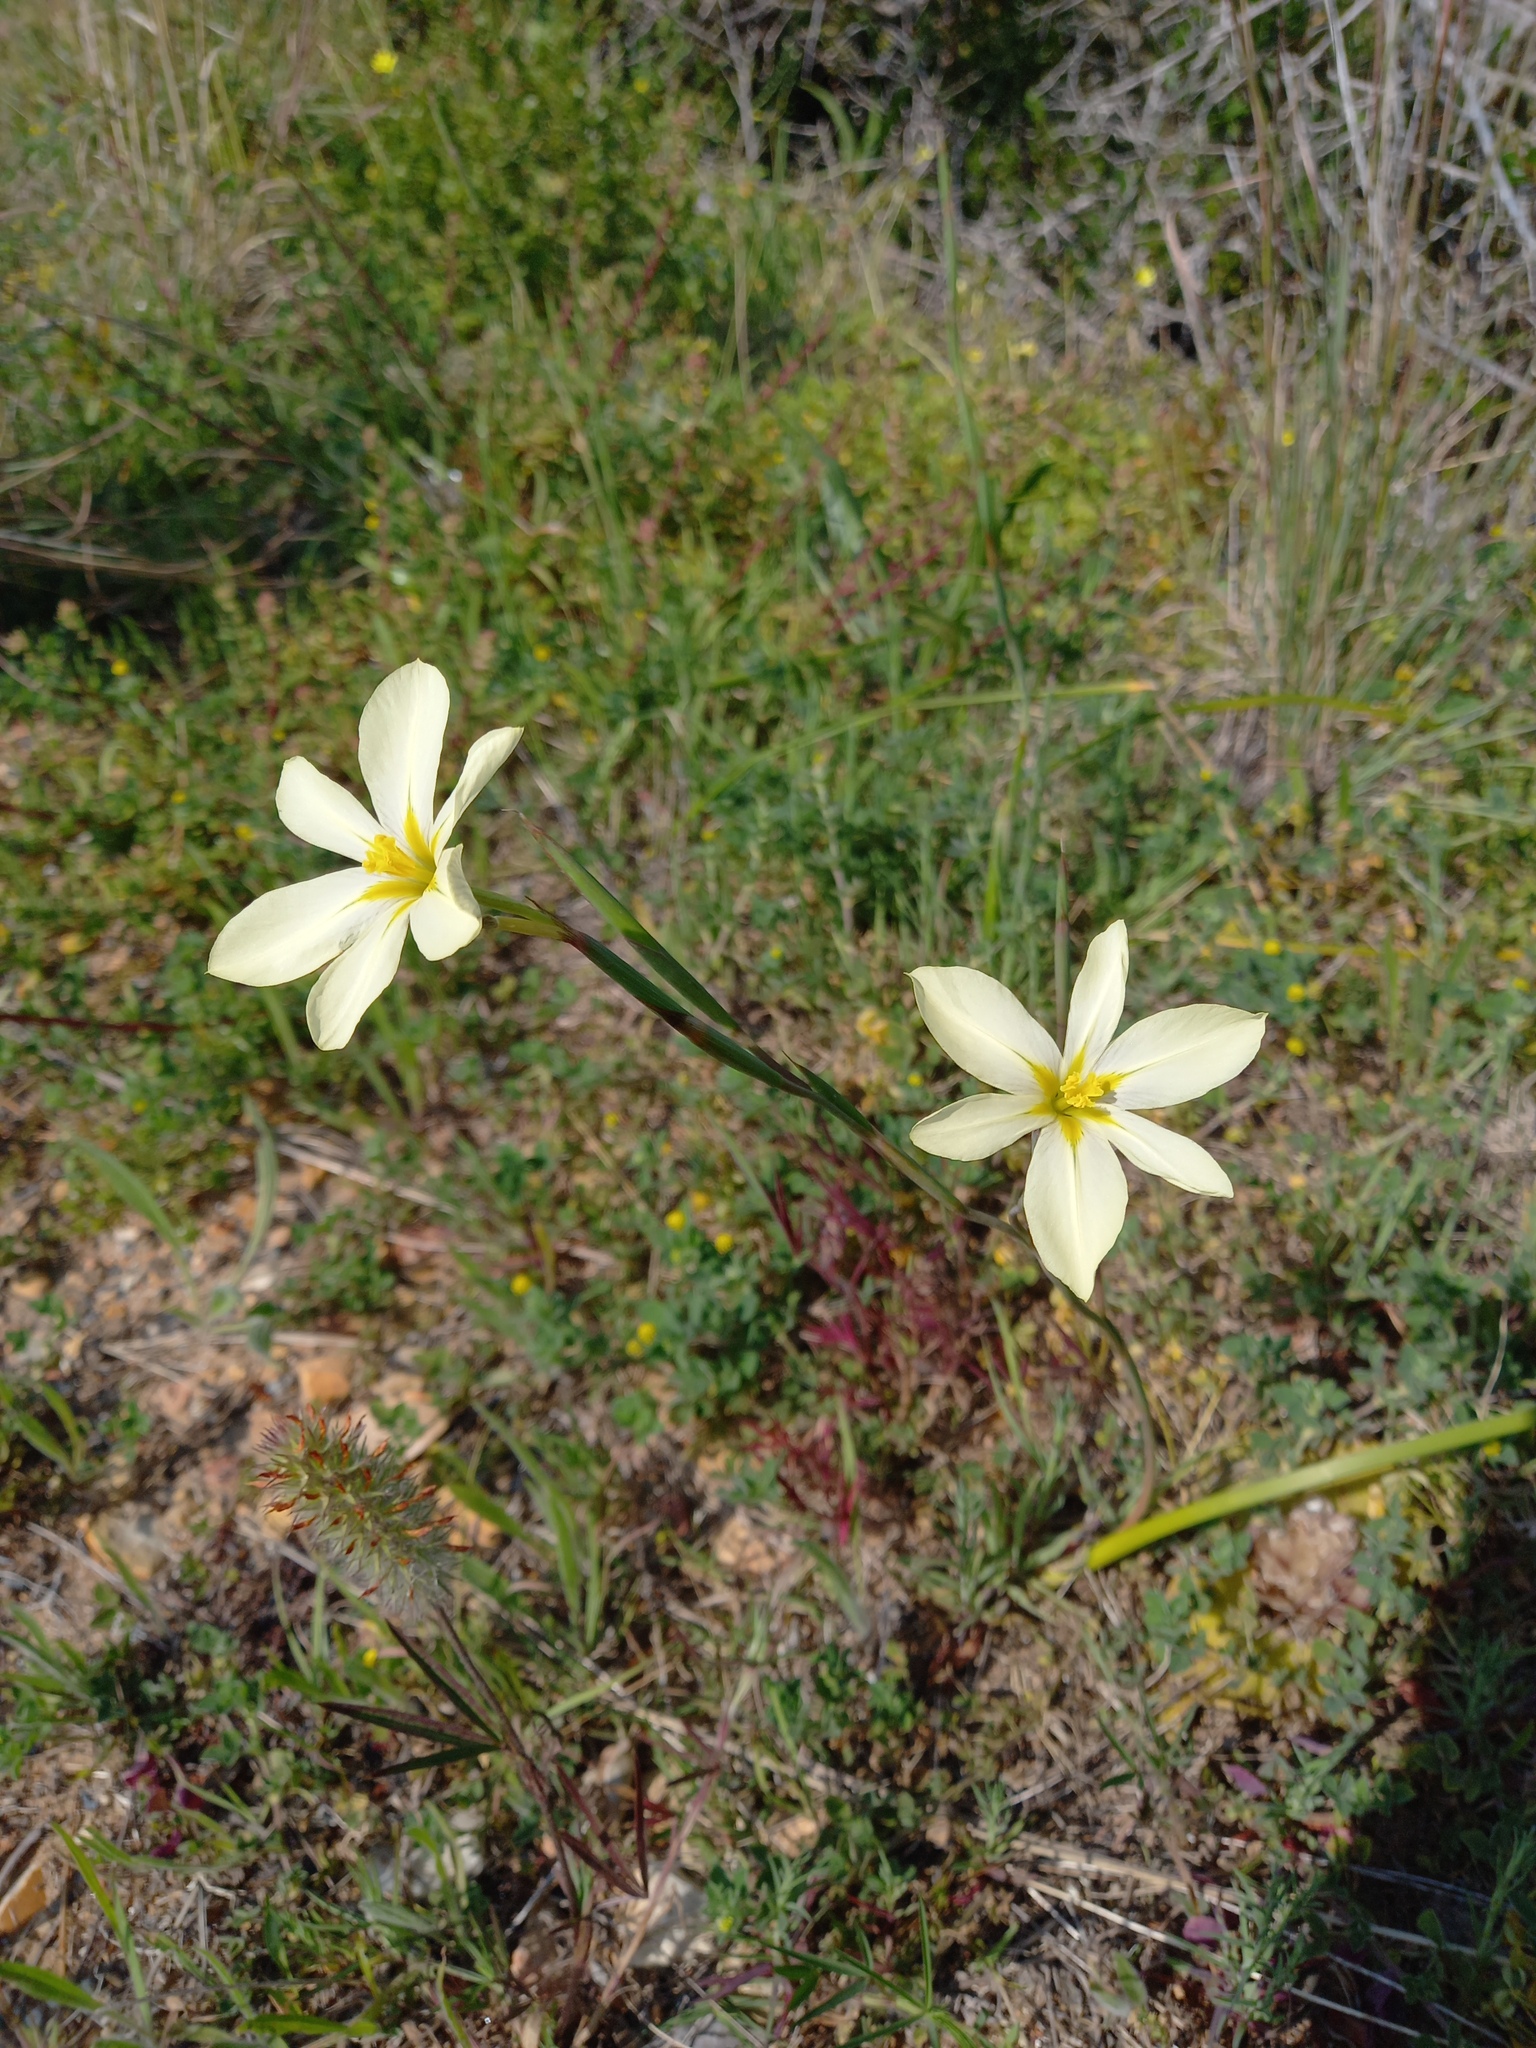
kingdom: Plantae
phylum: Tracheophyta
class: Liliopsida
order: Asparagales
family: Iridaceae
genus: Moraea
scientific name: Moraea bulbillifera
